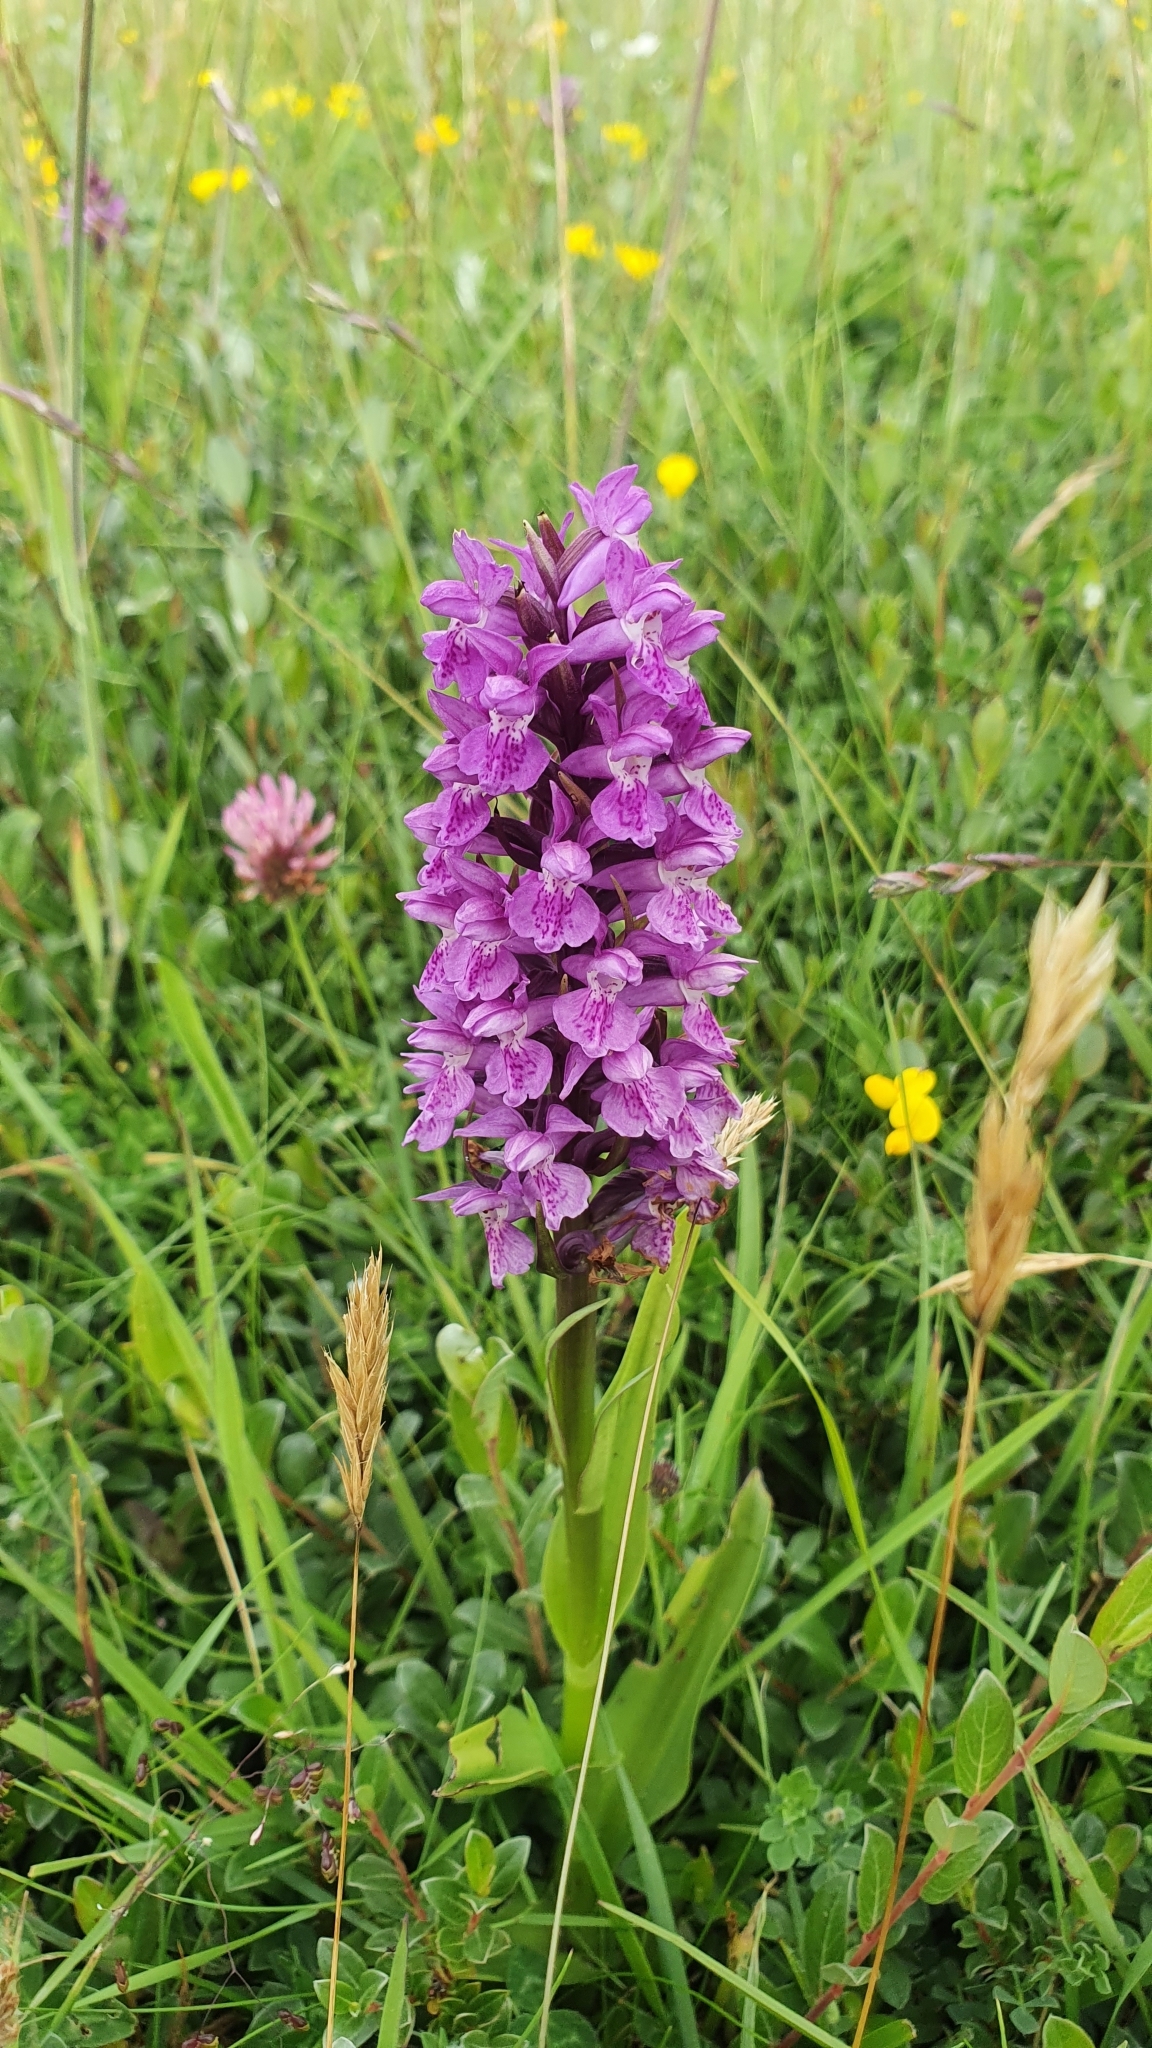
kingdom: Plantae
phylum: Tracheophyta
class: Liliopsida
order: Asparagales
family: Orchidaceae
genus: Dactylorhiza
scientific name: Dactylorhiza majalis
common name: Marsh orchid
